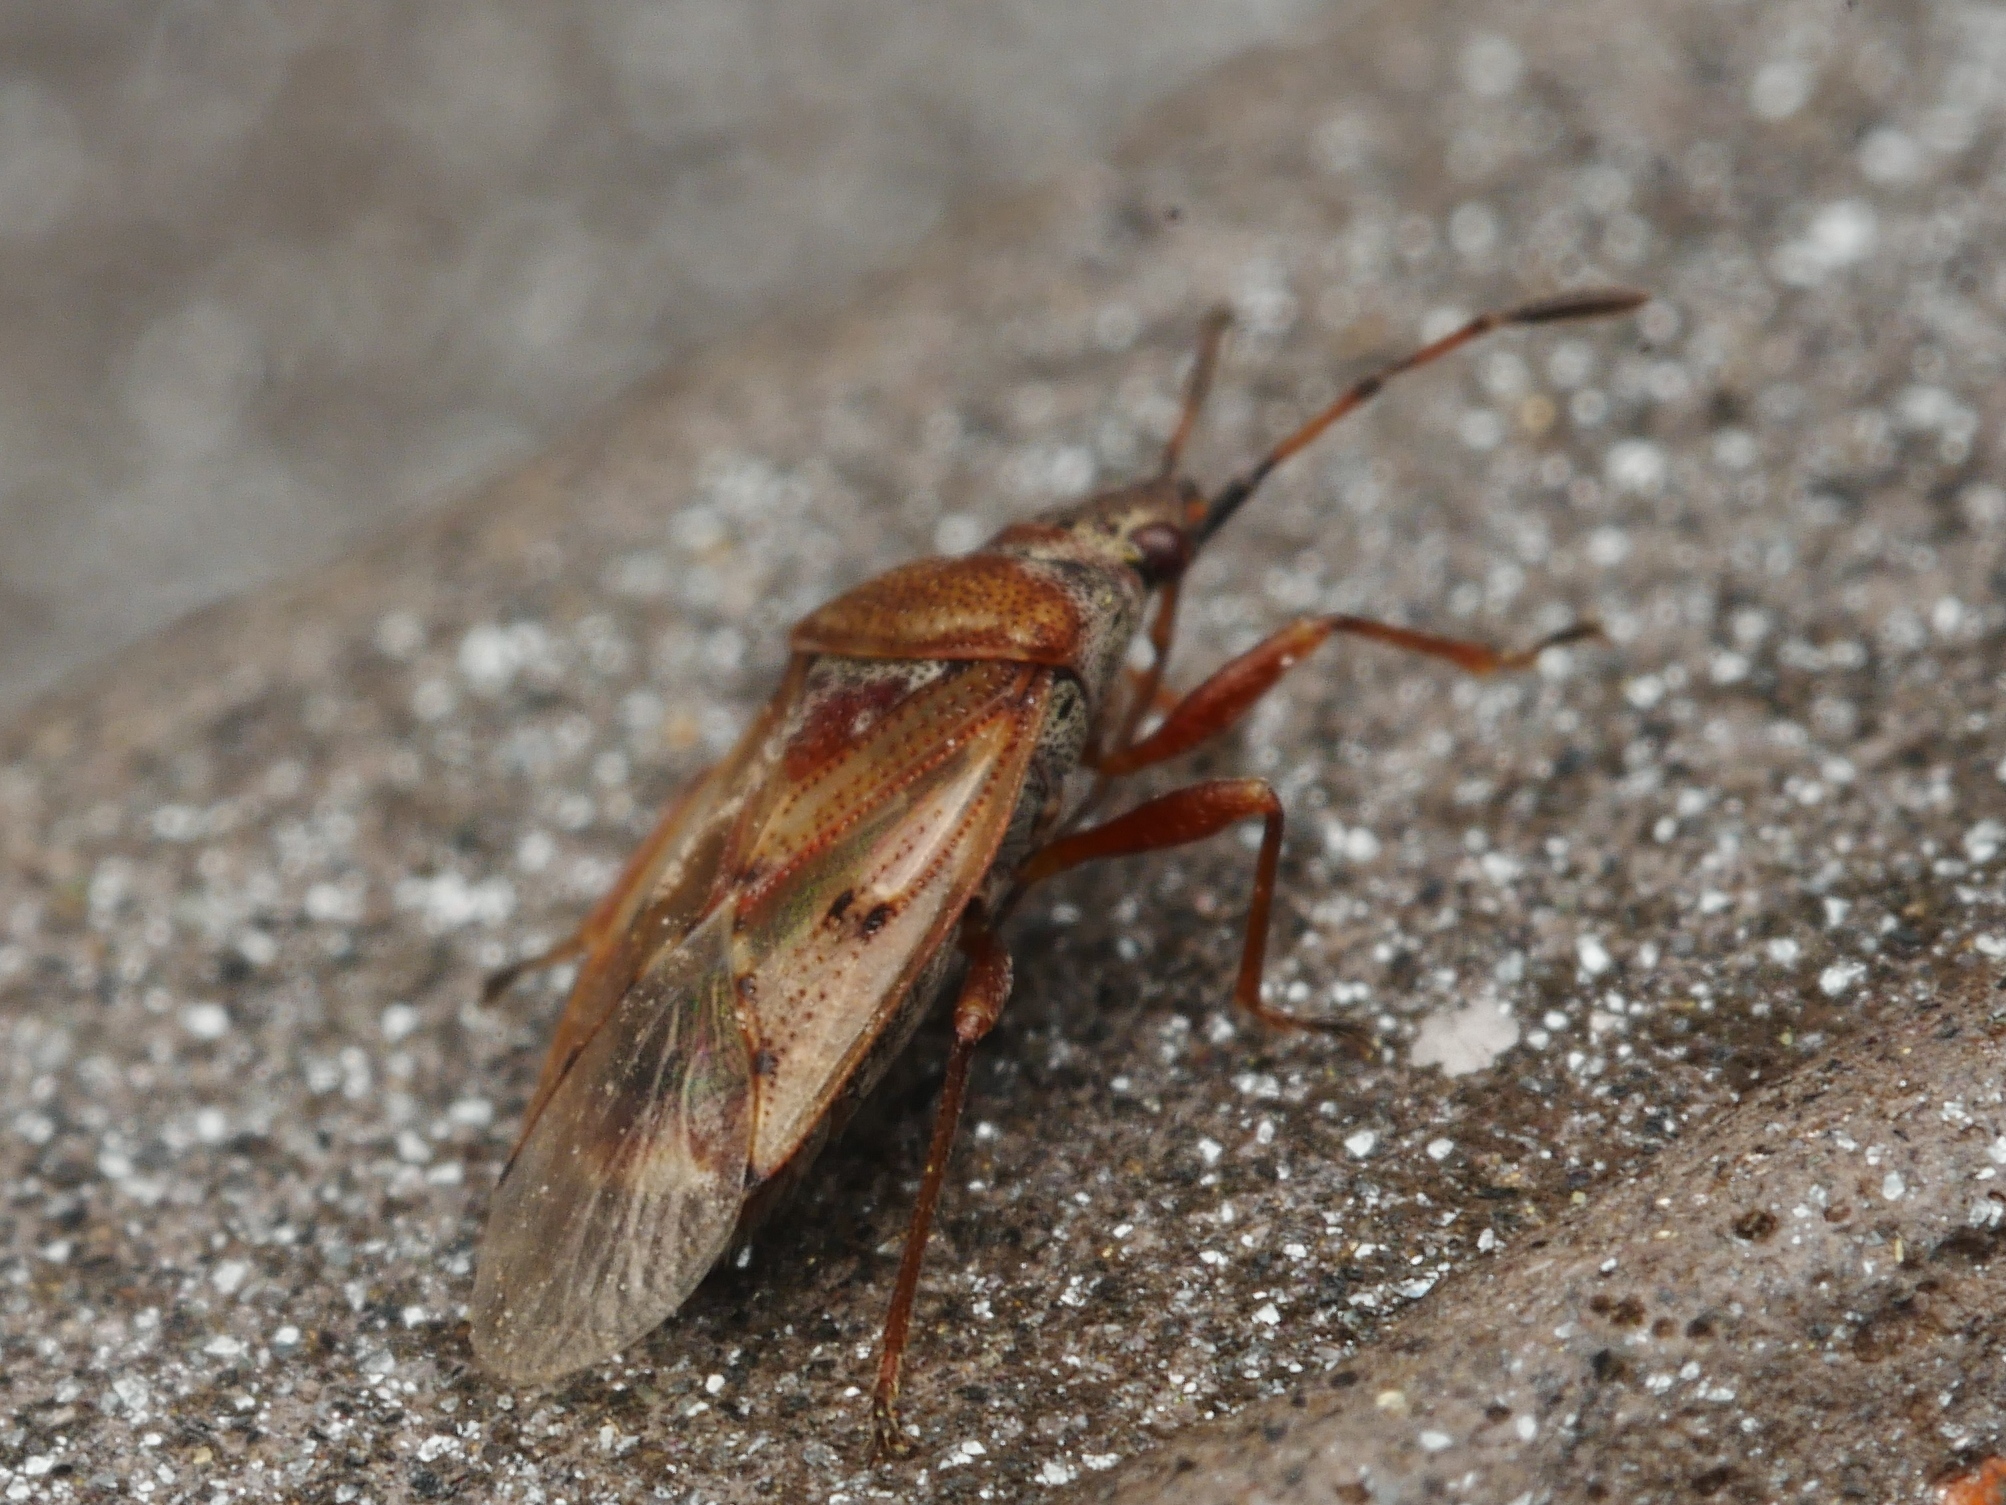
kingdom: Animalia
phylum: Arthropoda
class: Insecta
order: Hemiptera
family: Lygaeidae
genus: Kleidocerys
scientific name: Kleidocerys resedae
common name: Birch catkin bug
